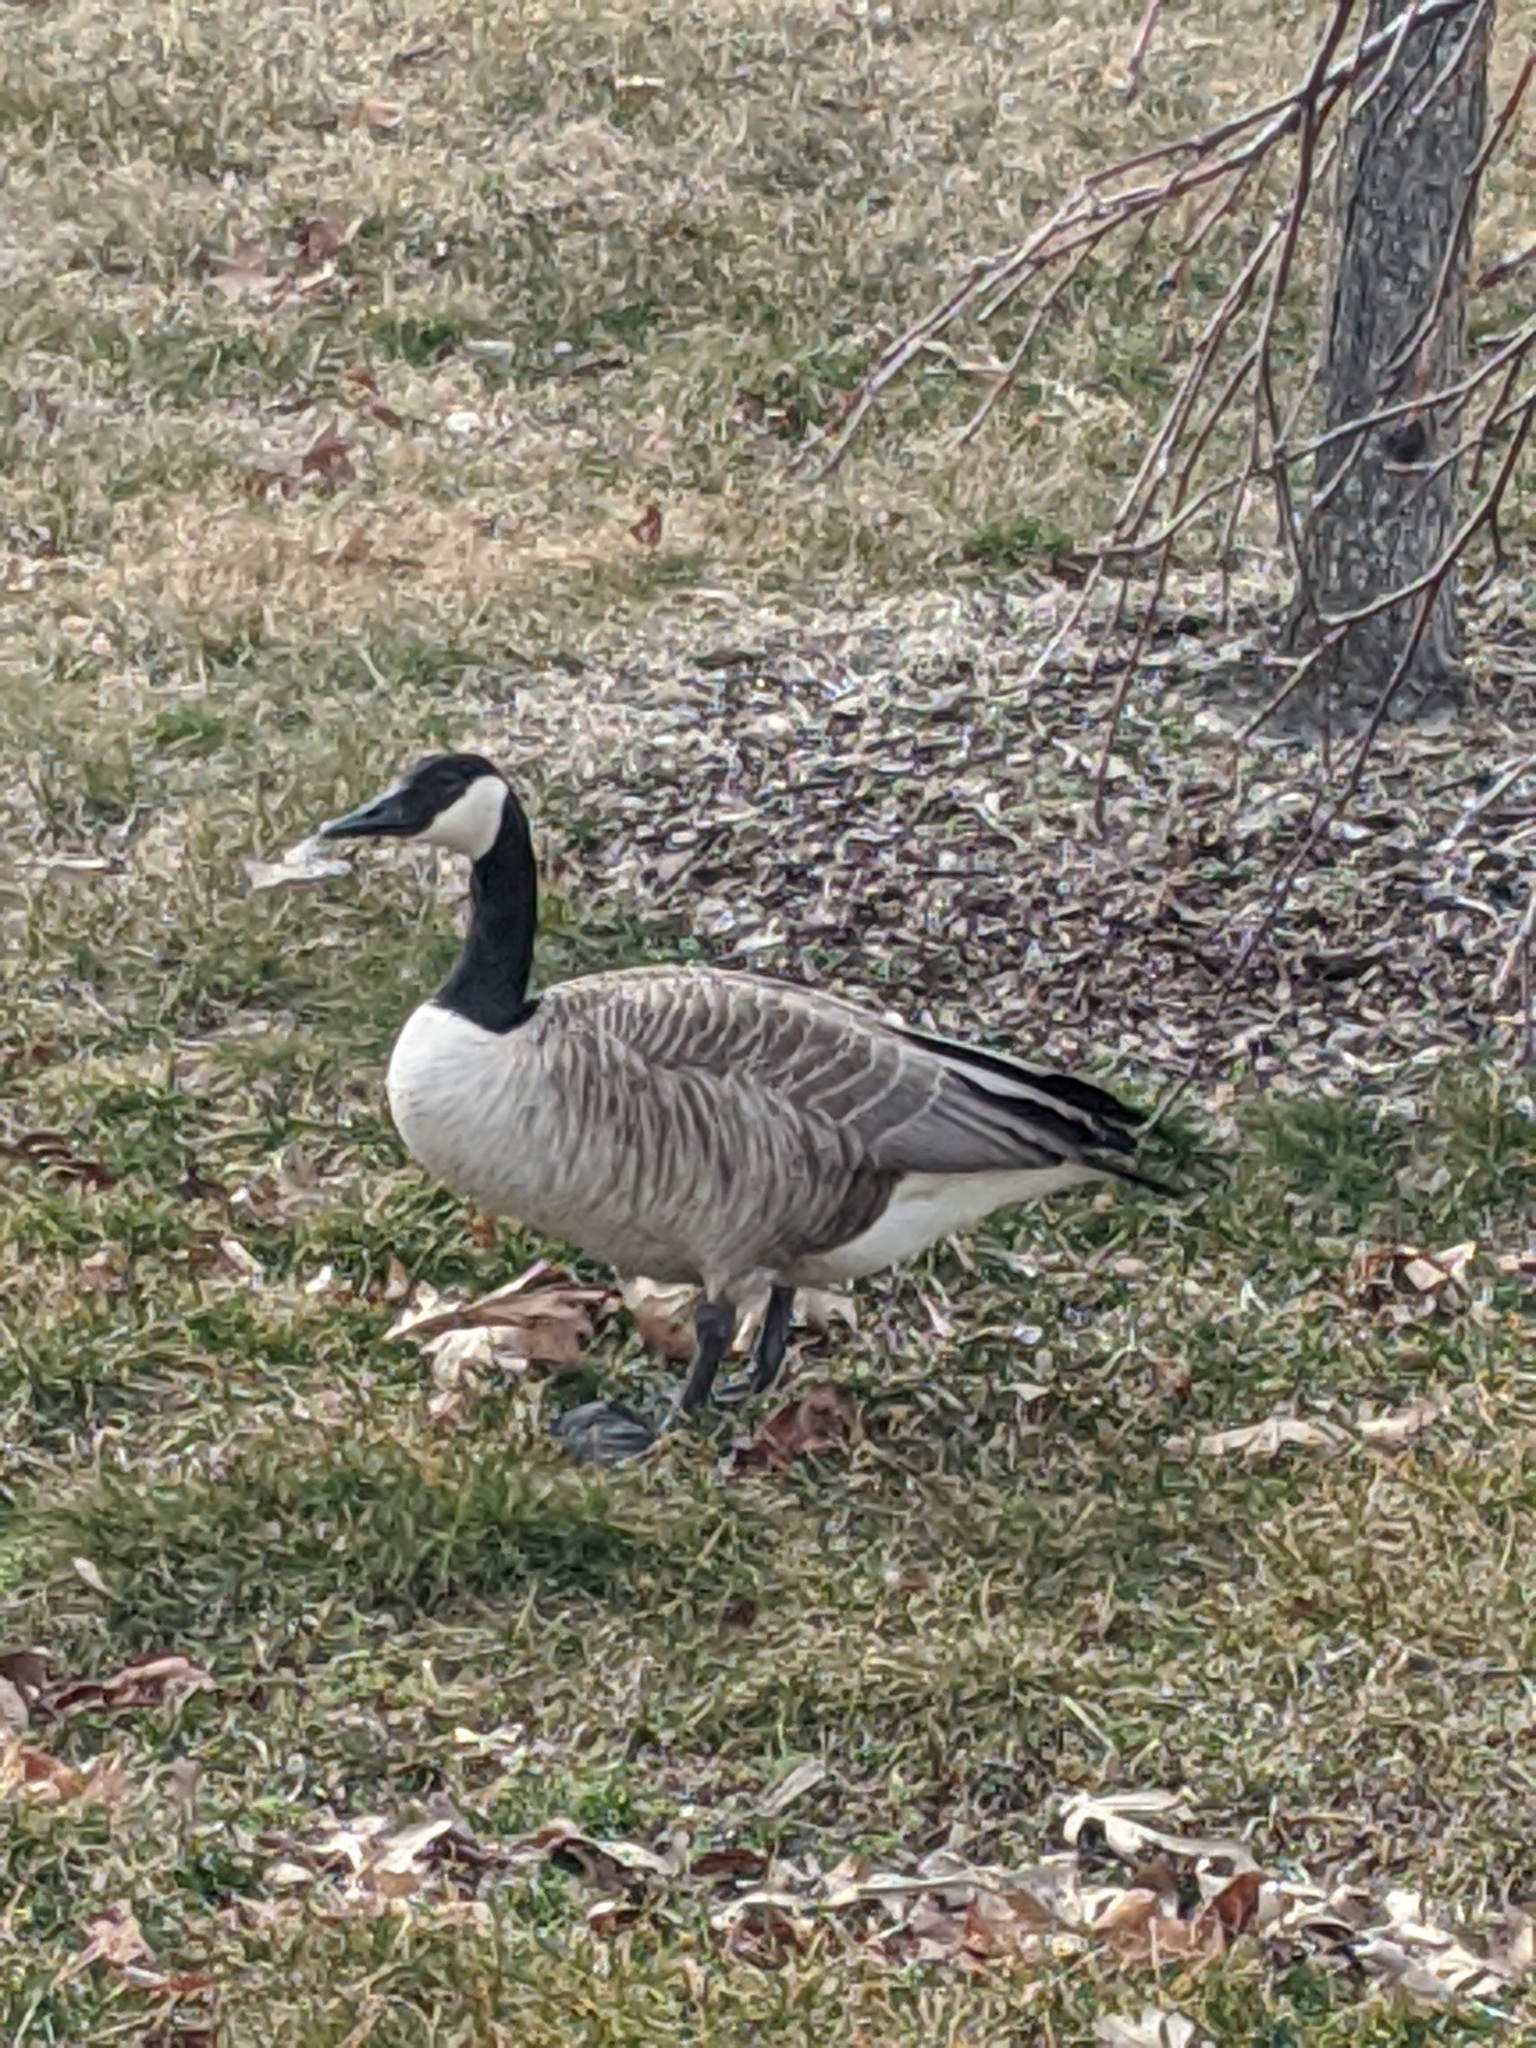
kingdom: Animalia
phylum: Chordata
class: Aves
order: Anseriformes
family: Anatidae
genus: Branta
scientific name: Branta canadensis
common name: Canada goose
